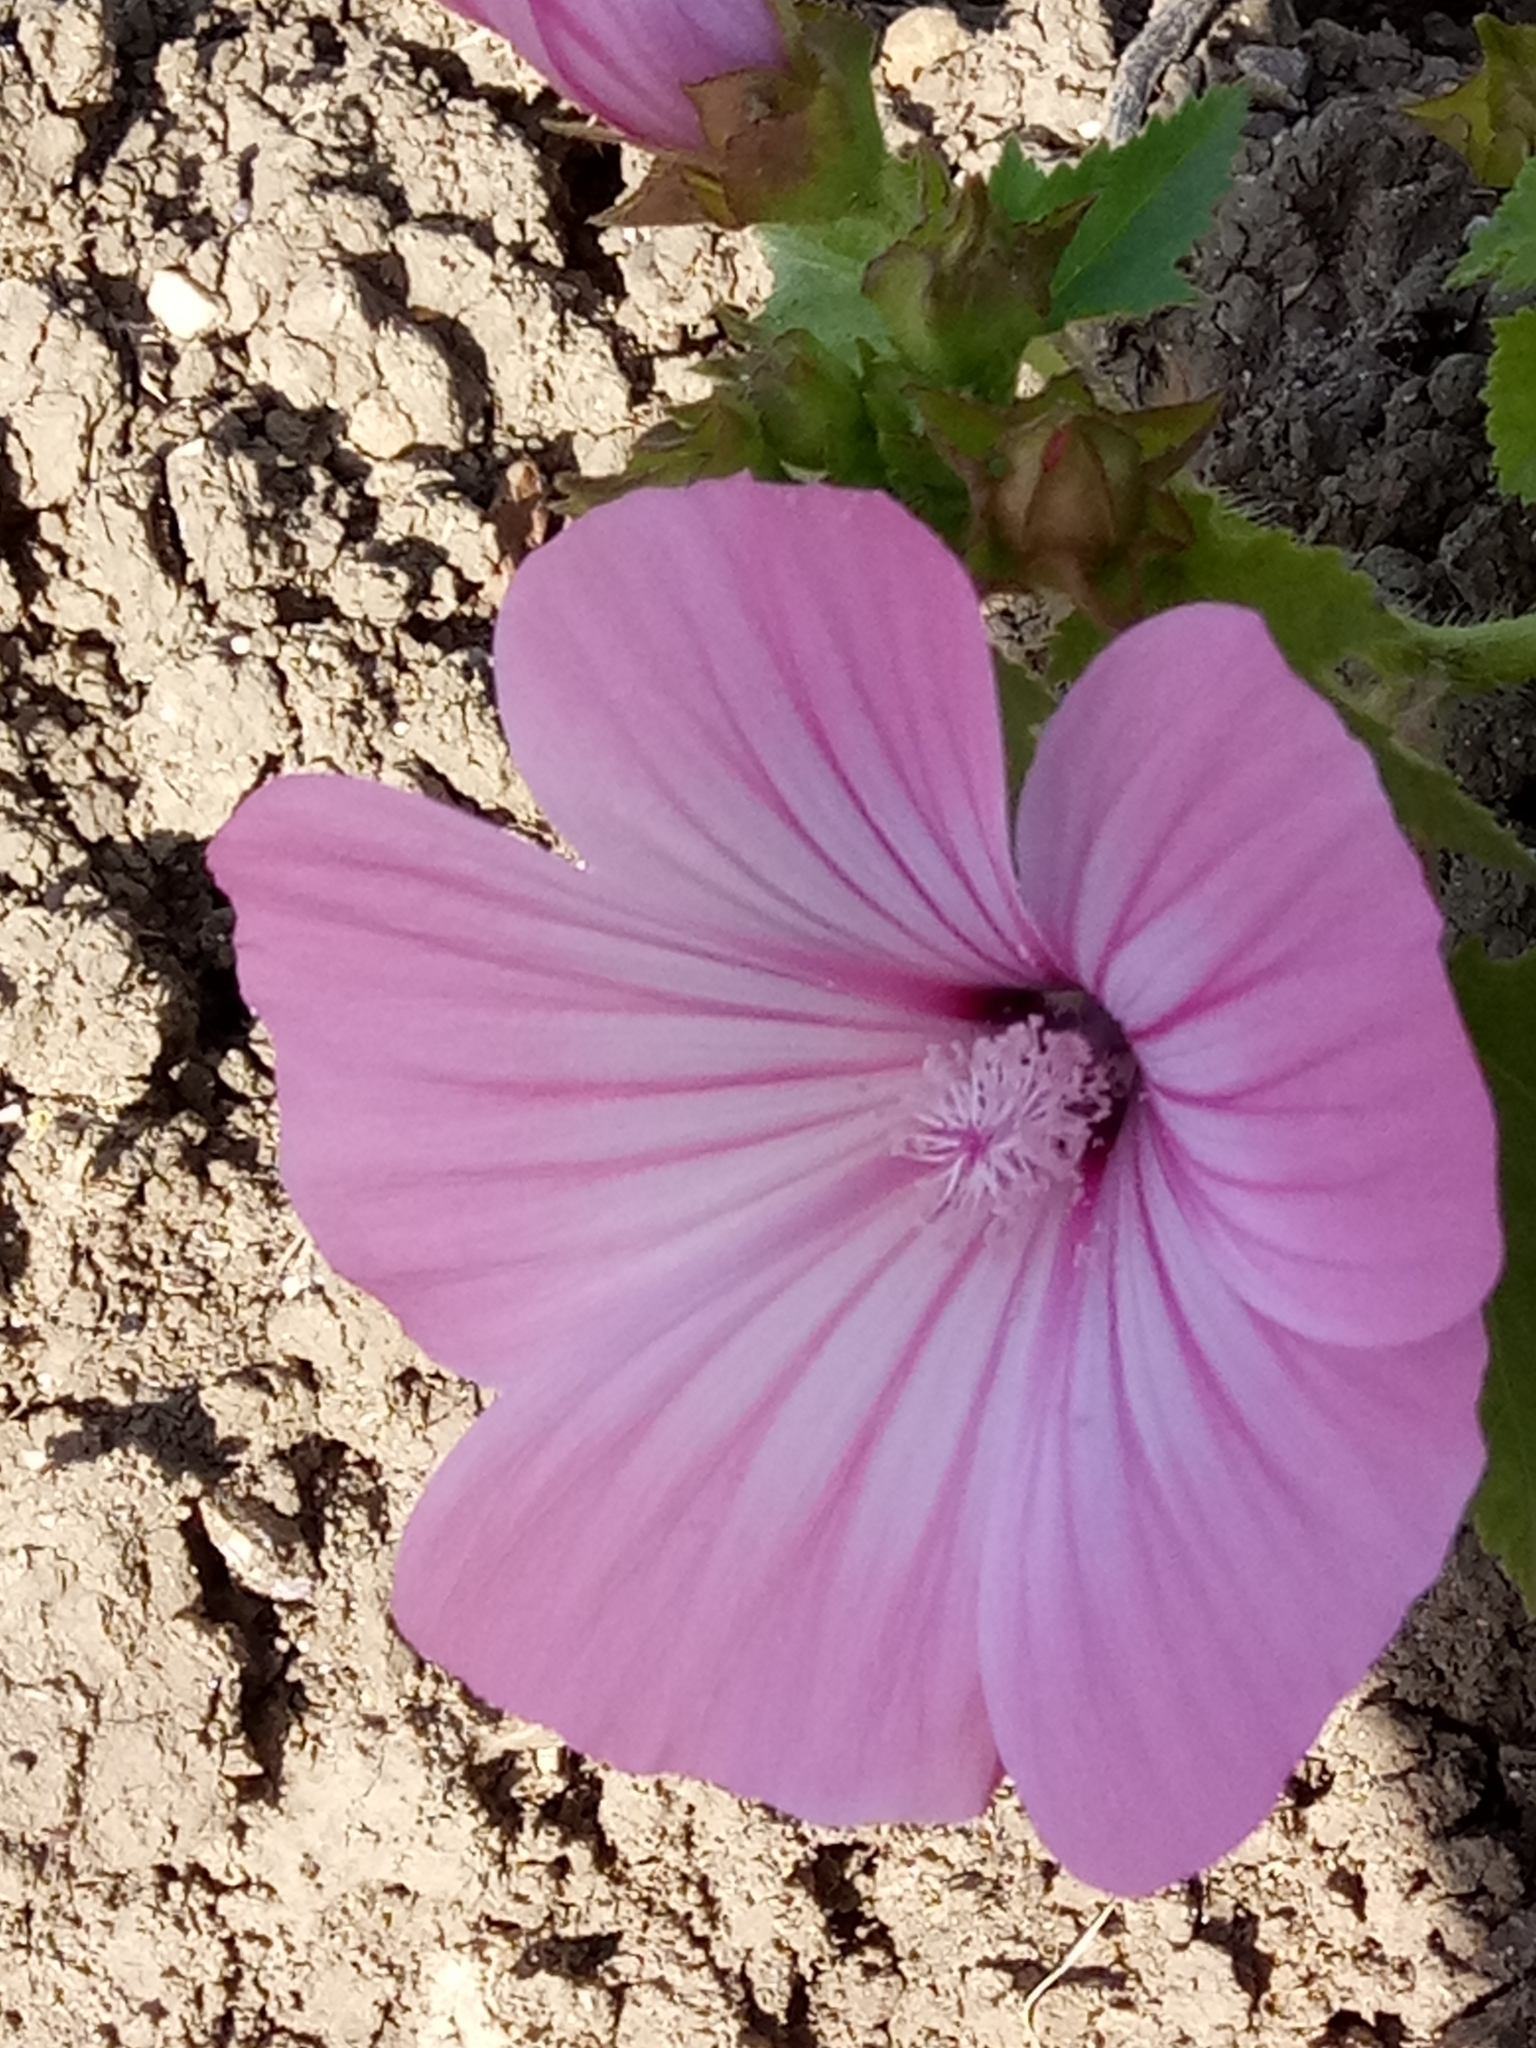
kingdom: Plantae
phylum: Tracheophyta
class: Magnoliopsida
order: Malvales
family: Malvaceae
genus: Malva
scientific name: Malva trimestris
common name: Royal mallow
